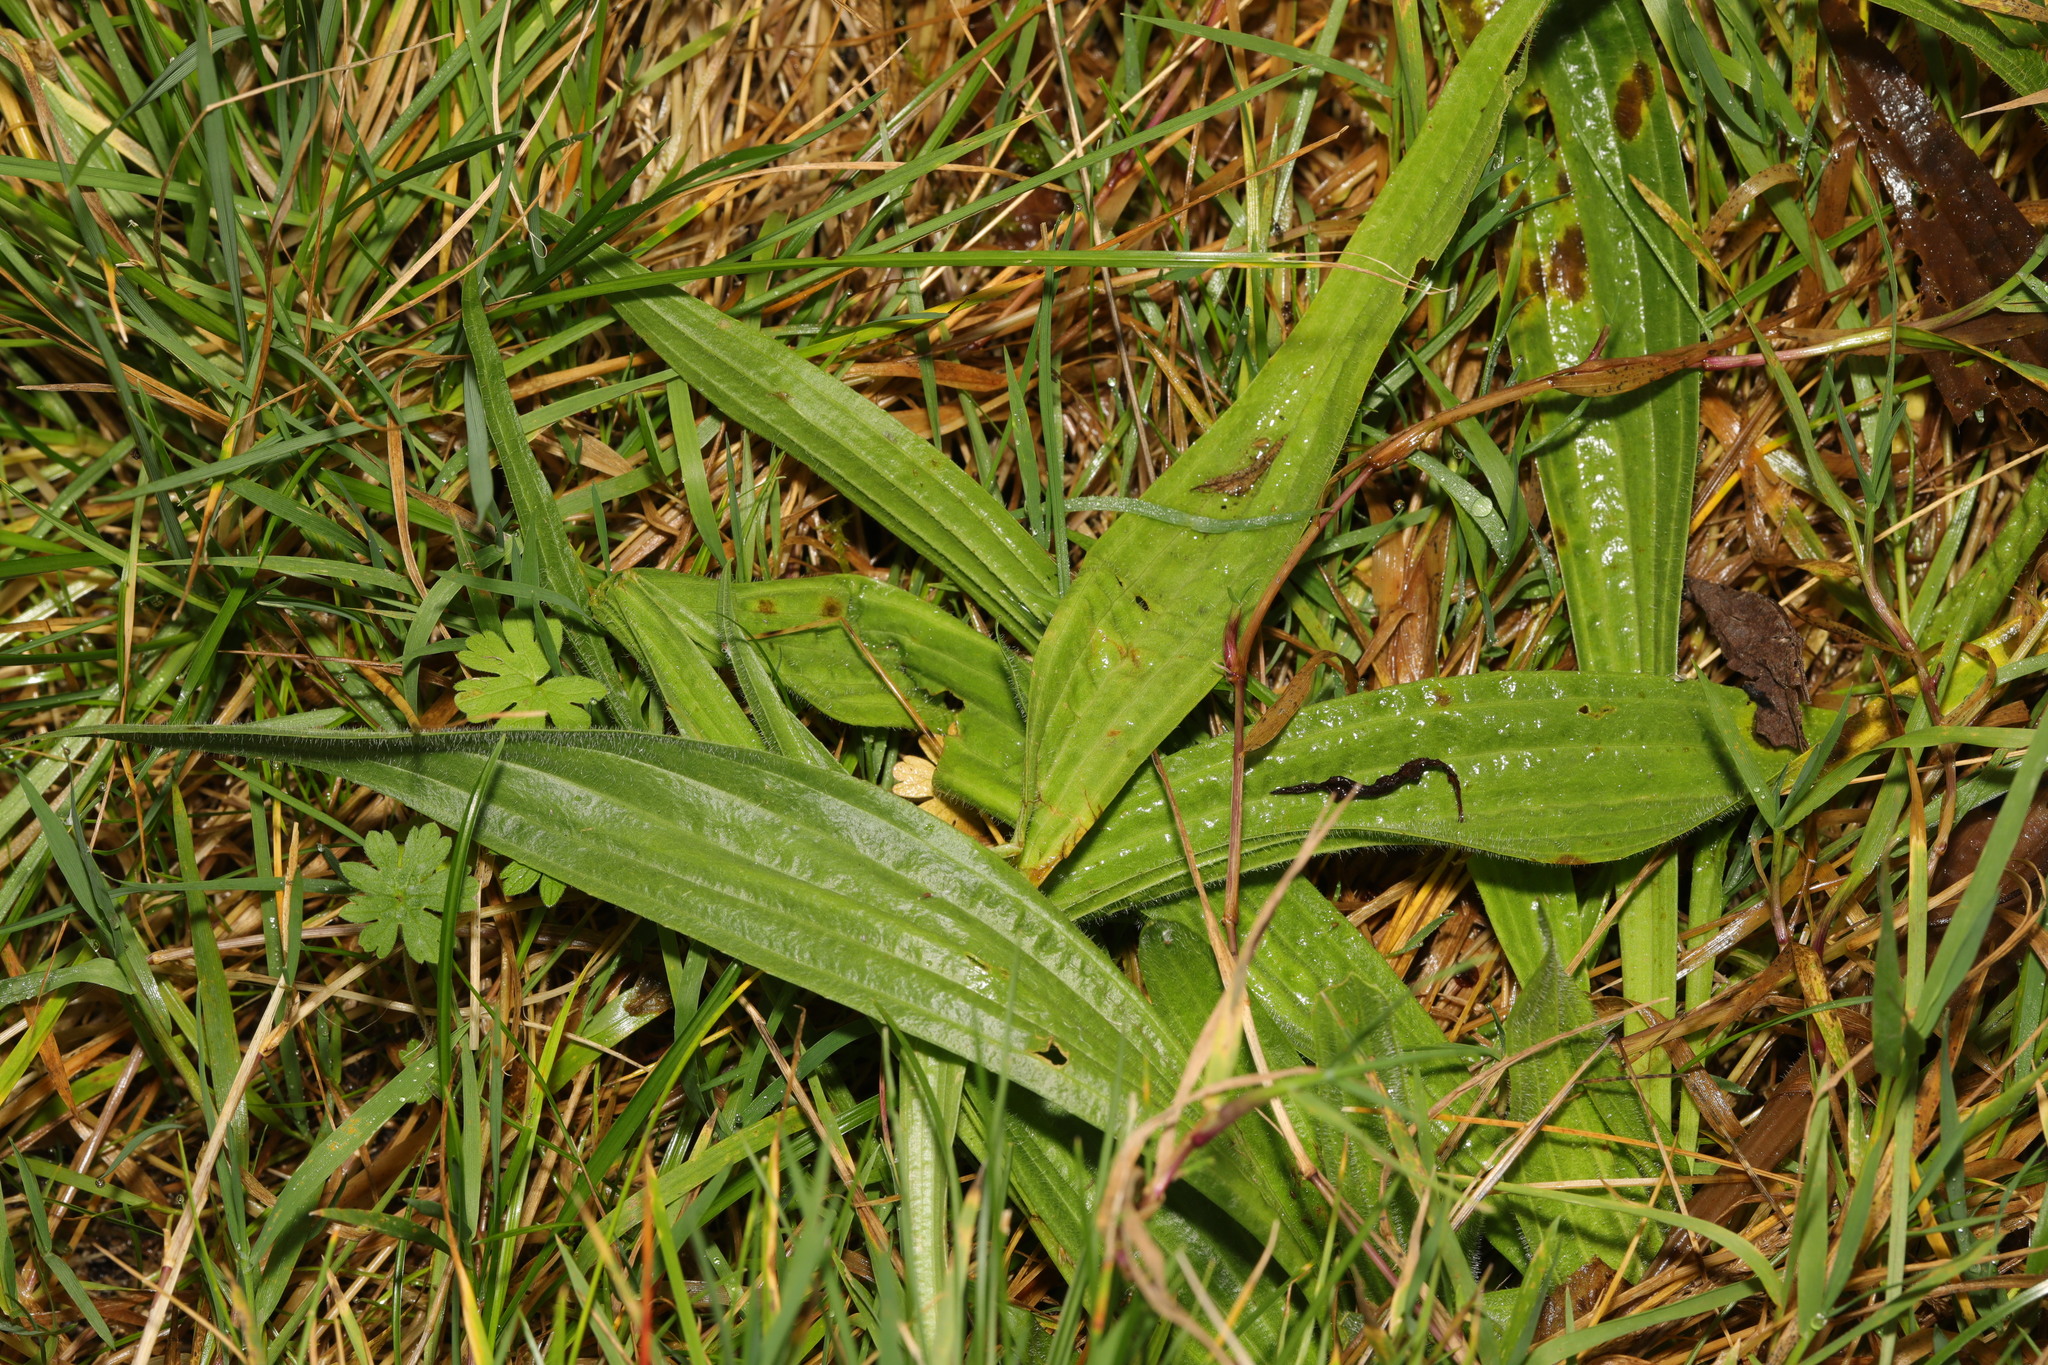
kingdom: Plantae
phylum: Tracheophyta
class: Magnoliopsida
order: Lamiales
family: Plantaginaceae
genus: Plantago
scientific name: Plantago lanceolata
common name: Ribwort plantain
